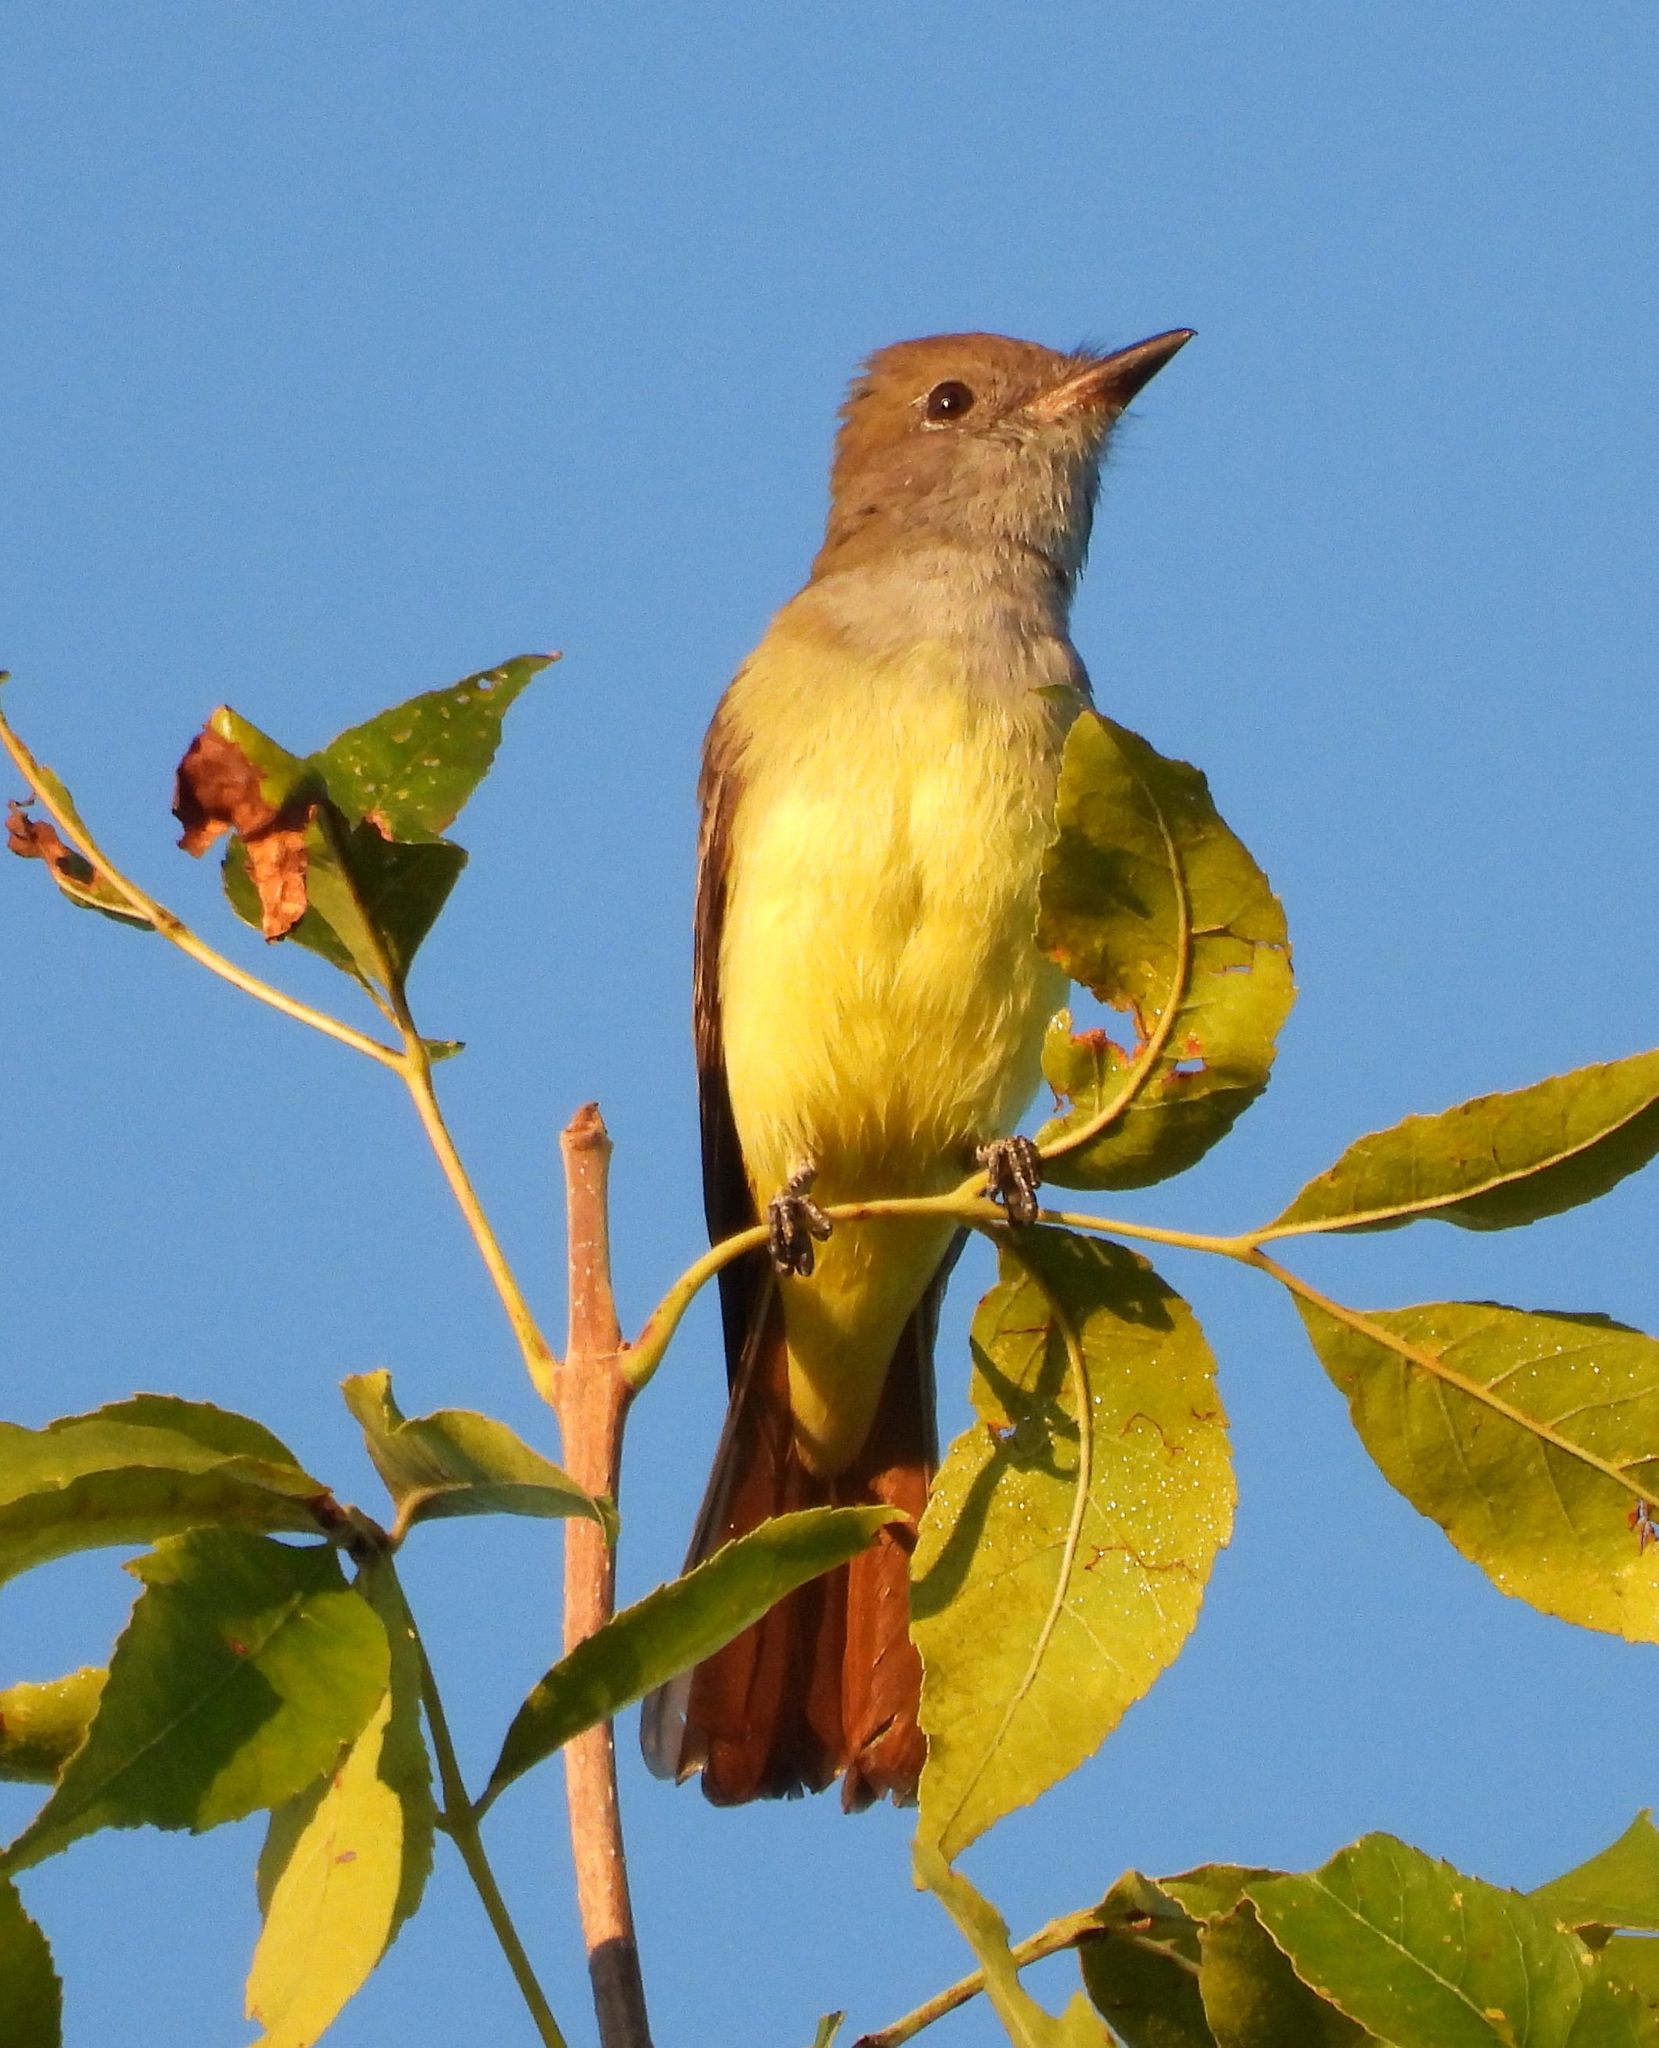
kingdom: Animalia
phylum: Chordata
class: Aves
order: Passeriformes
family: Tyrannidae
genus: Myiarchus
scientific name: Myiarchus crinitus
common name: Great crested flycatcher
